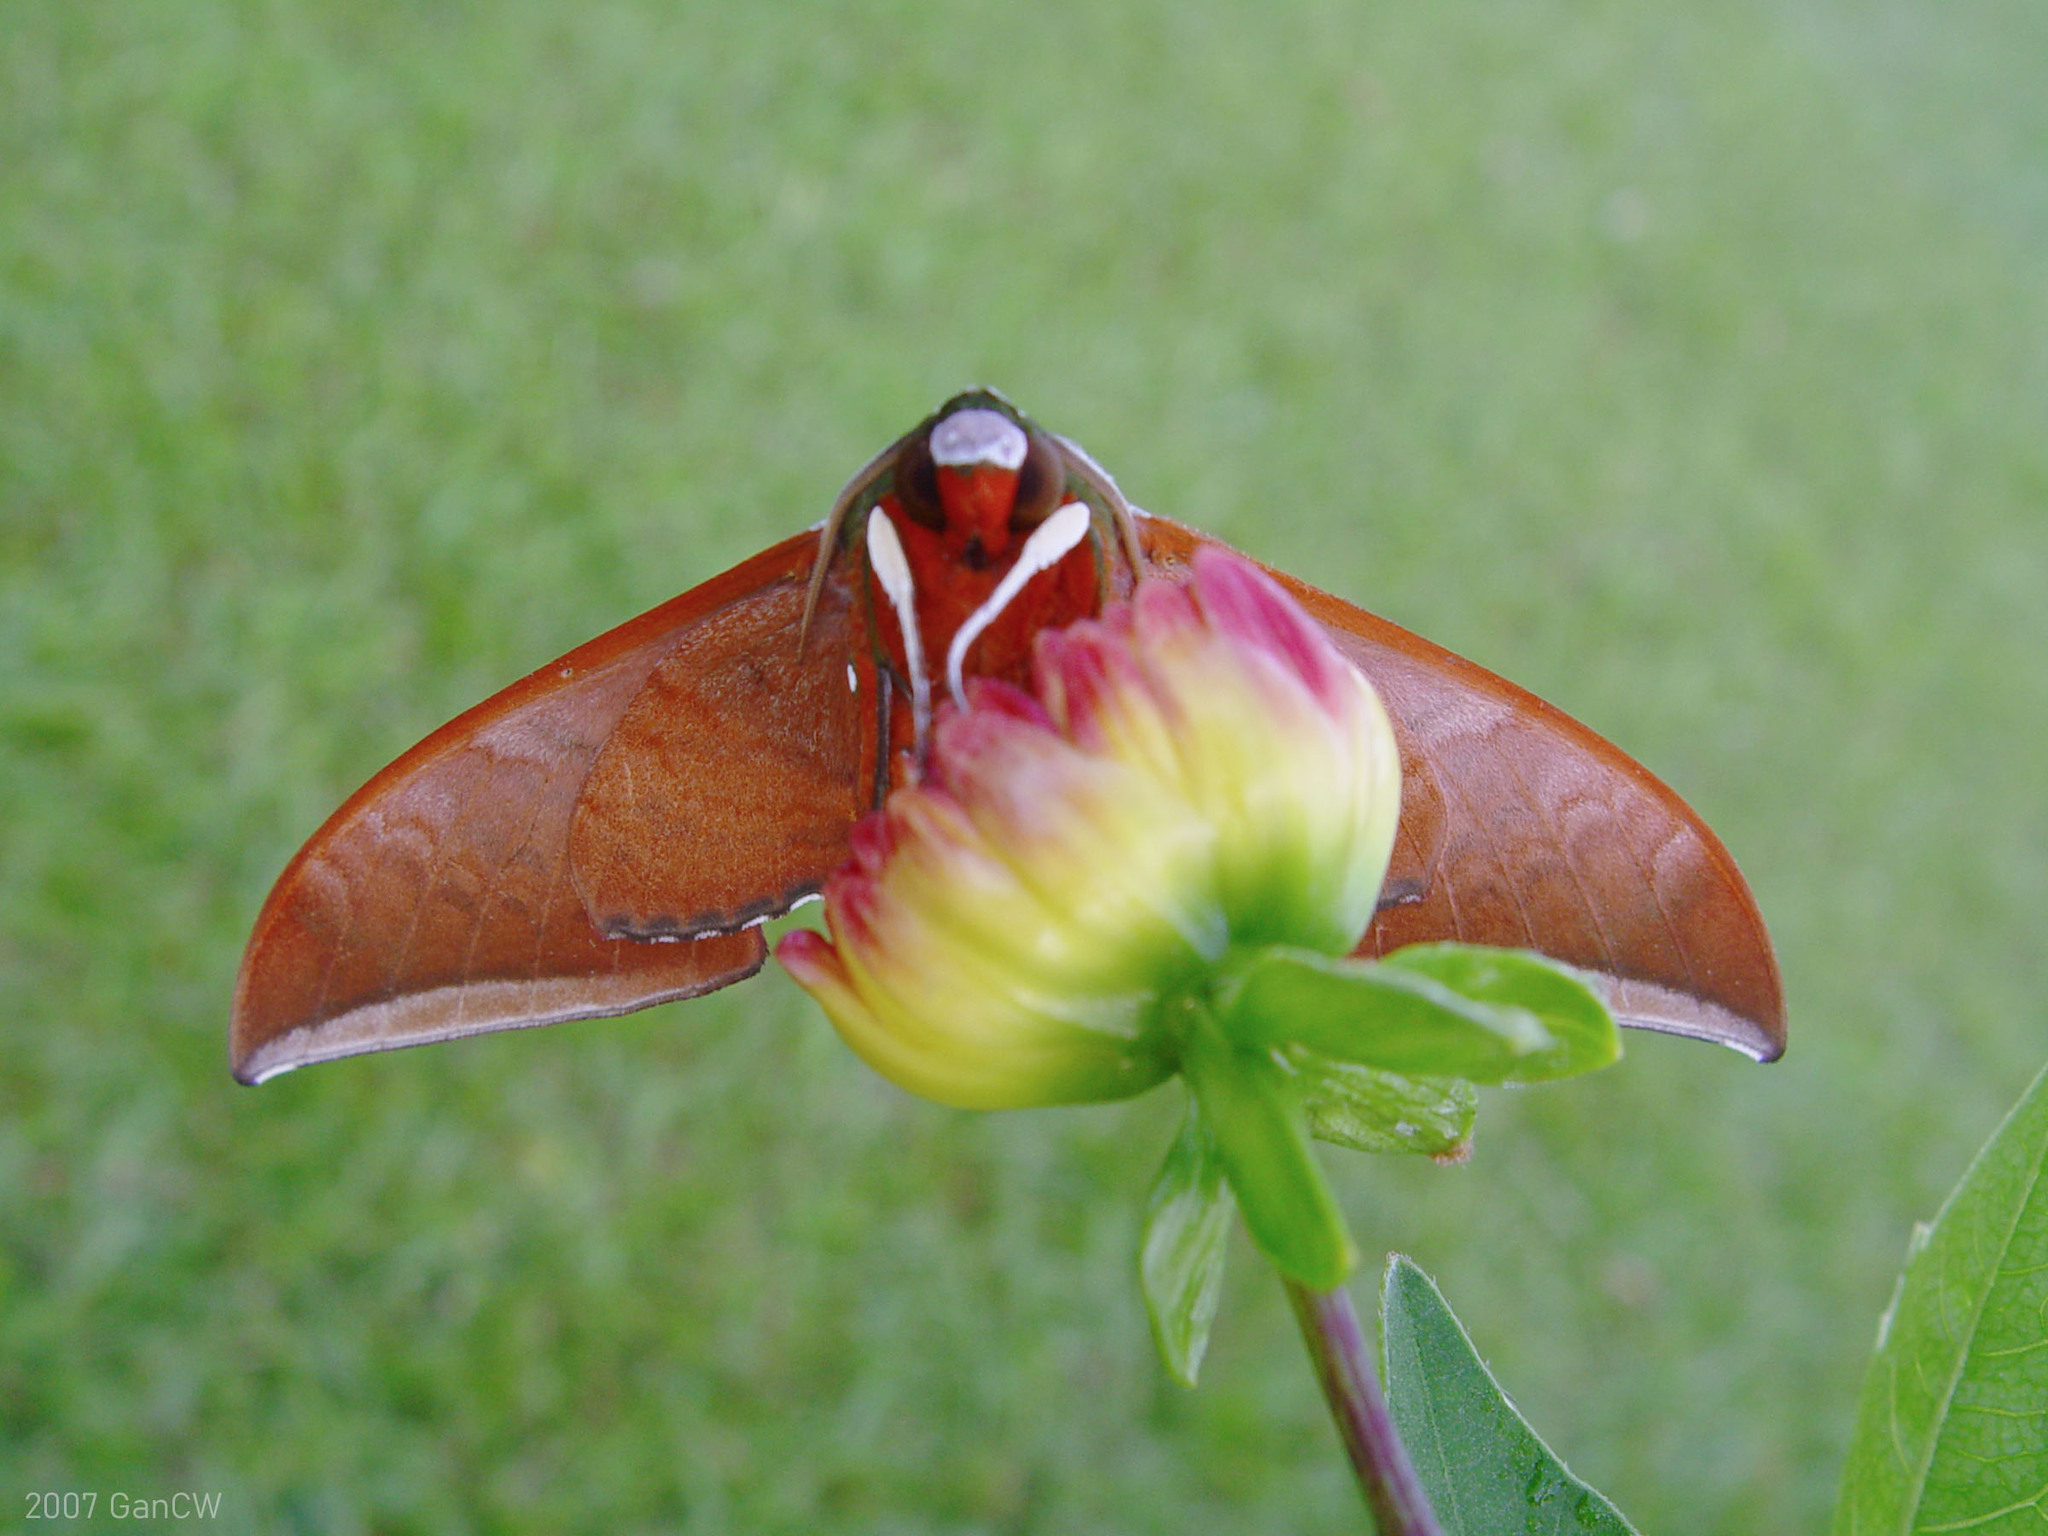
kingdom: Animalia
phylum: Arthropoda
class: Insecta
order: Lepidoptera
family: Sphingidae
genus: Ambulyx
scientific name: Ambulyx moorei
